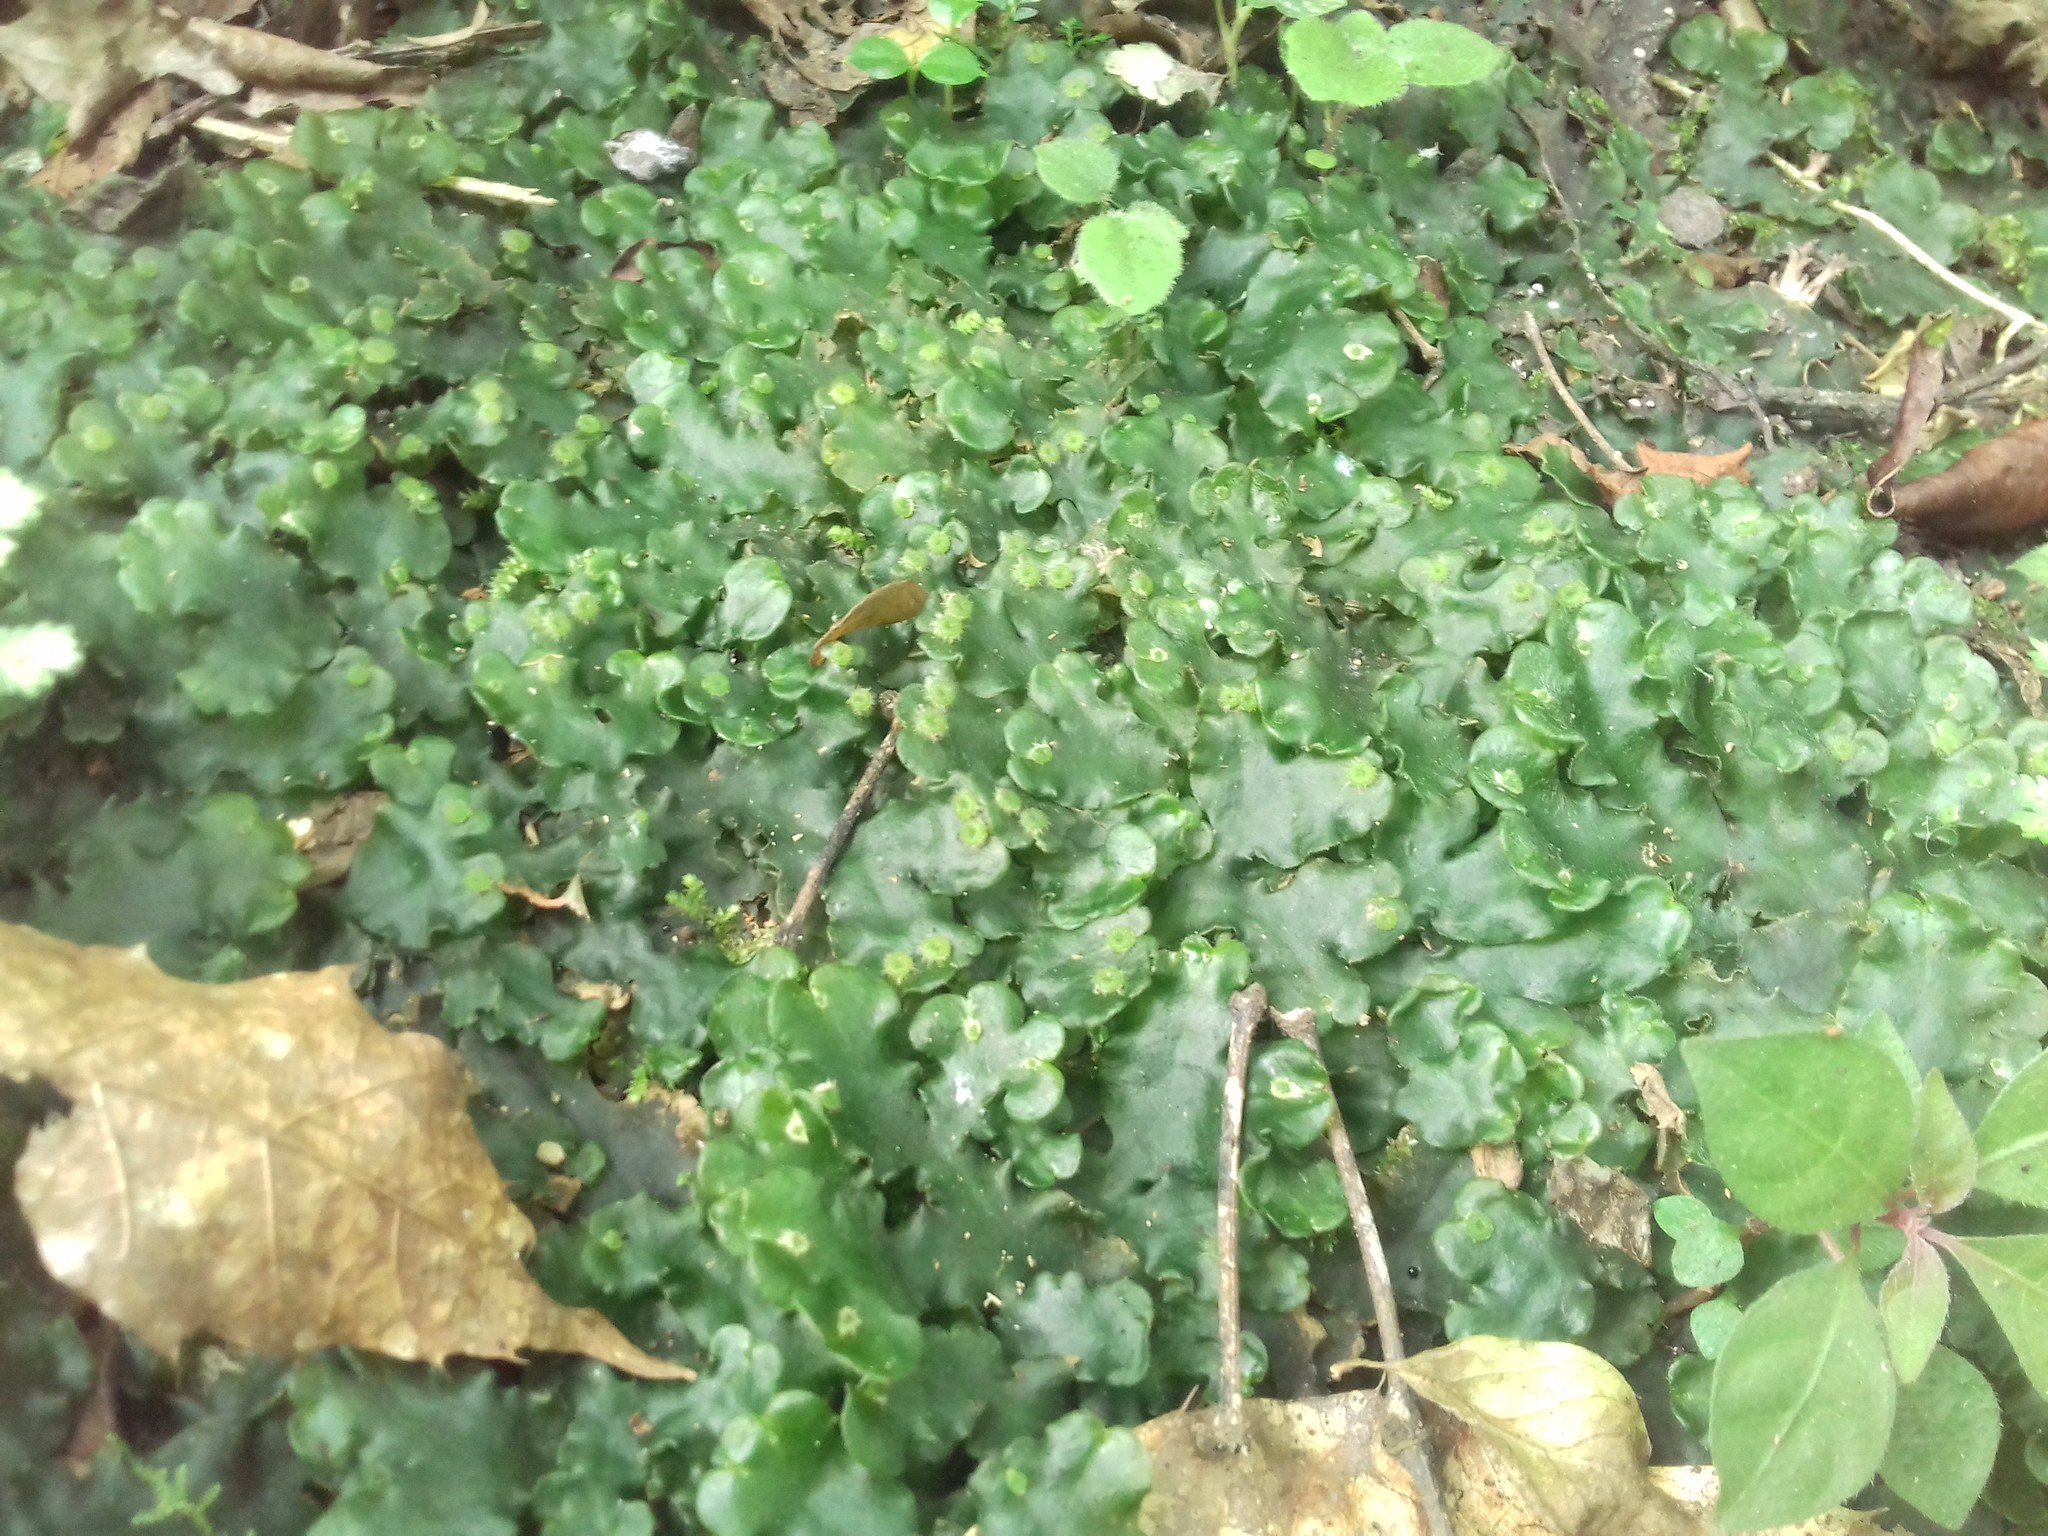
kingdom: Plantae
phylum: Marchantiophyta
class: Marchantiopsida
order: Marchantiales
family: Dumortieraceae
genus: Dumortiera
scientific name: Dumortiera hirsuta
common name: Dumortier's liverwort
